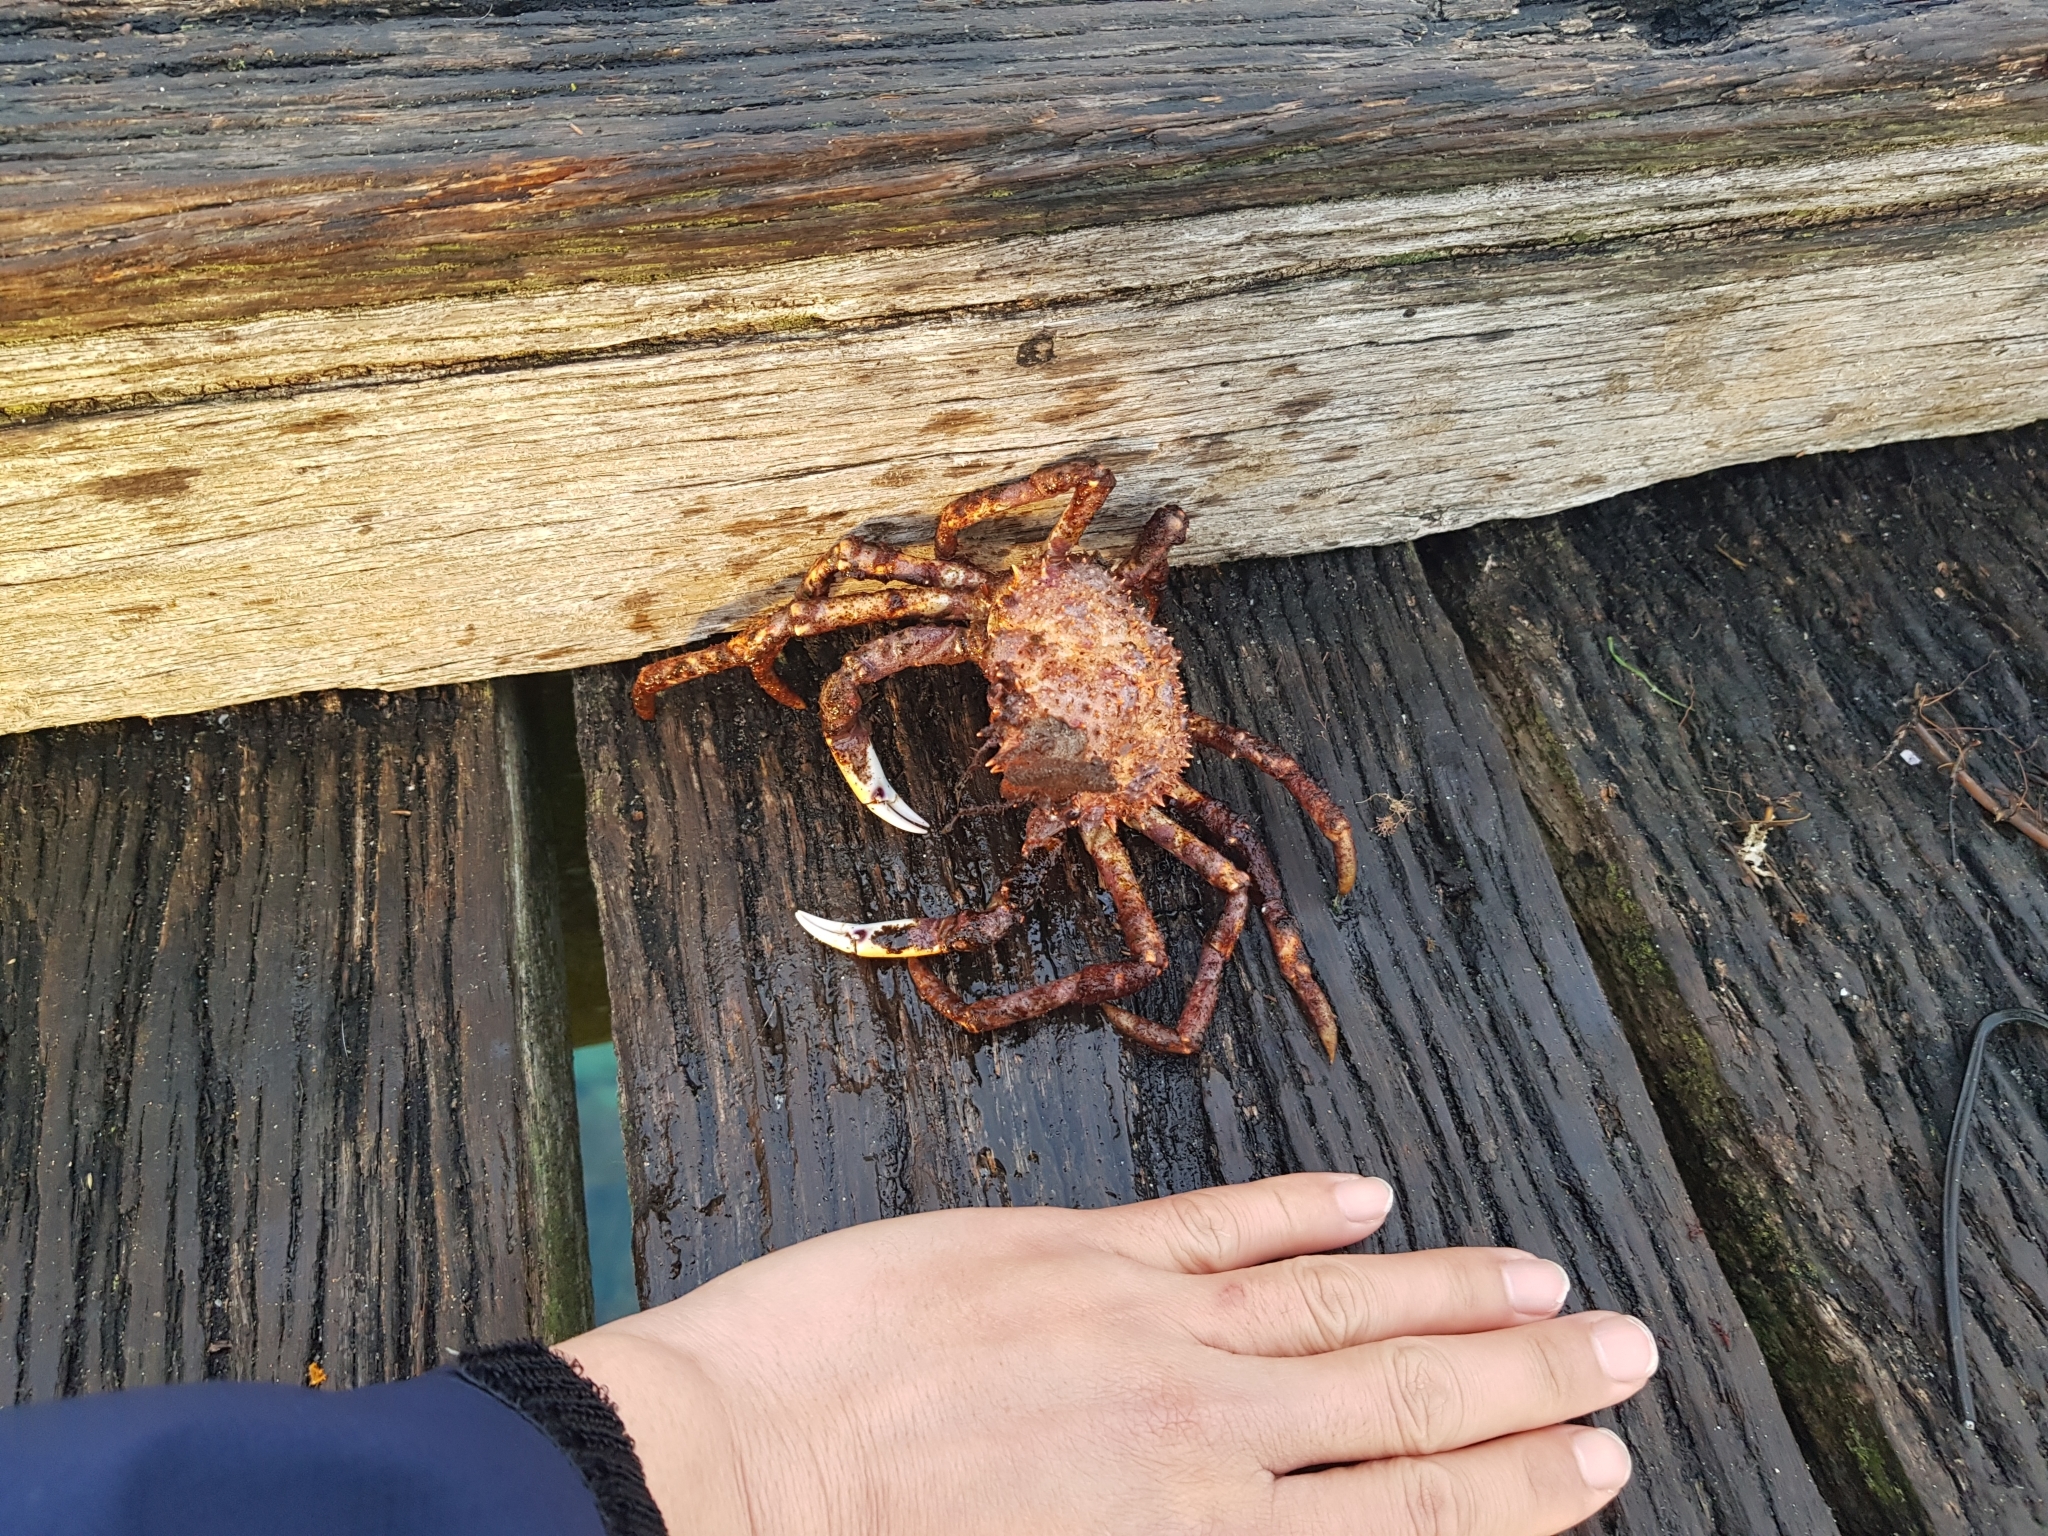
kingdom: Animalia
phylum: Arthropoda
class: Malacostraca
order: Decapoda
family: Majidae
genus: Leptomithrax
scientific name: Leptomithrax gaimardii
